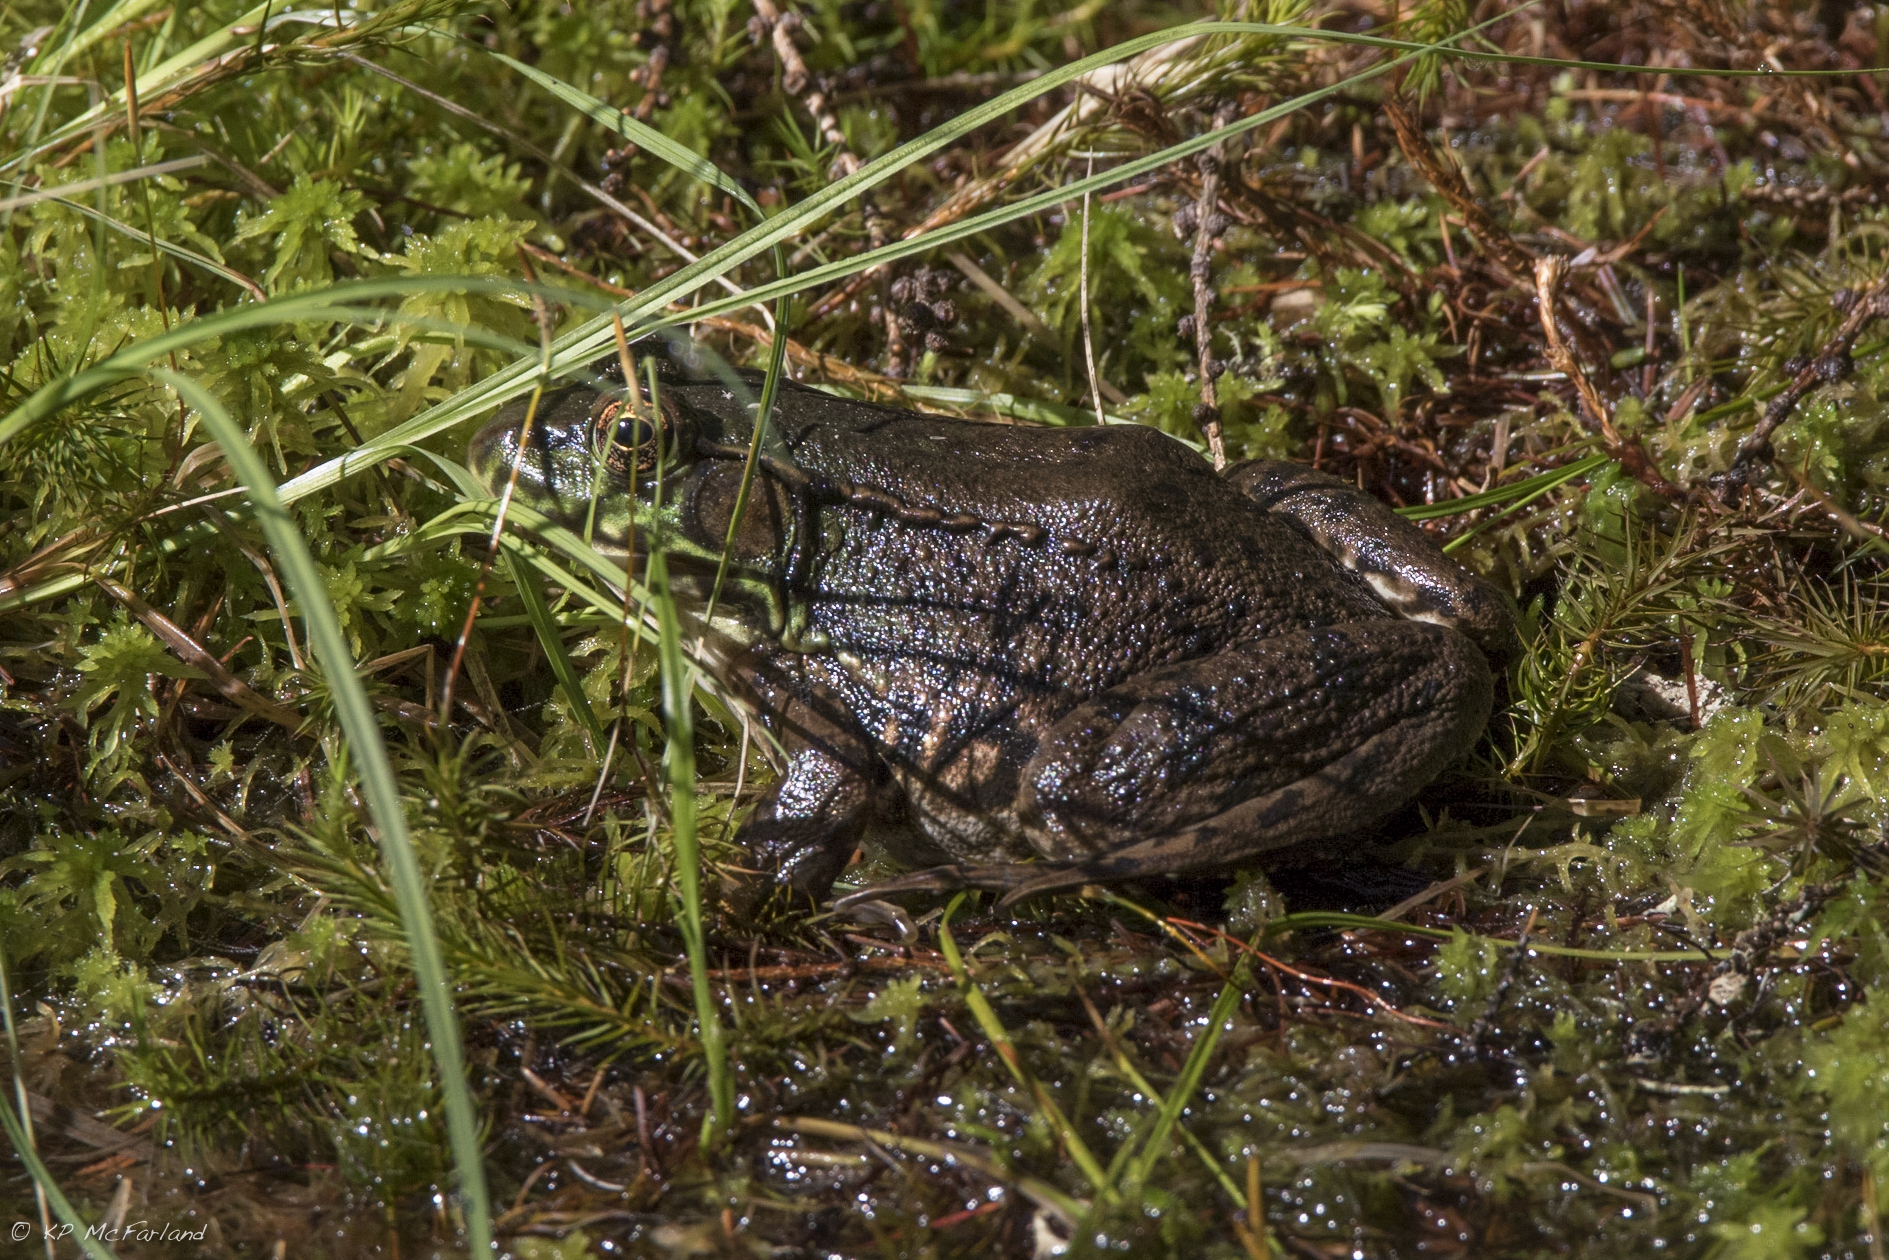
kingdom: Animalia
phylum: Chordata
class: Amphibia
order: Anura
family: Ranidae
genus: Lithobates
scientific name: Lithobates clamitans
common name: Green frog
